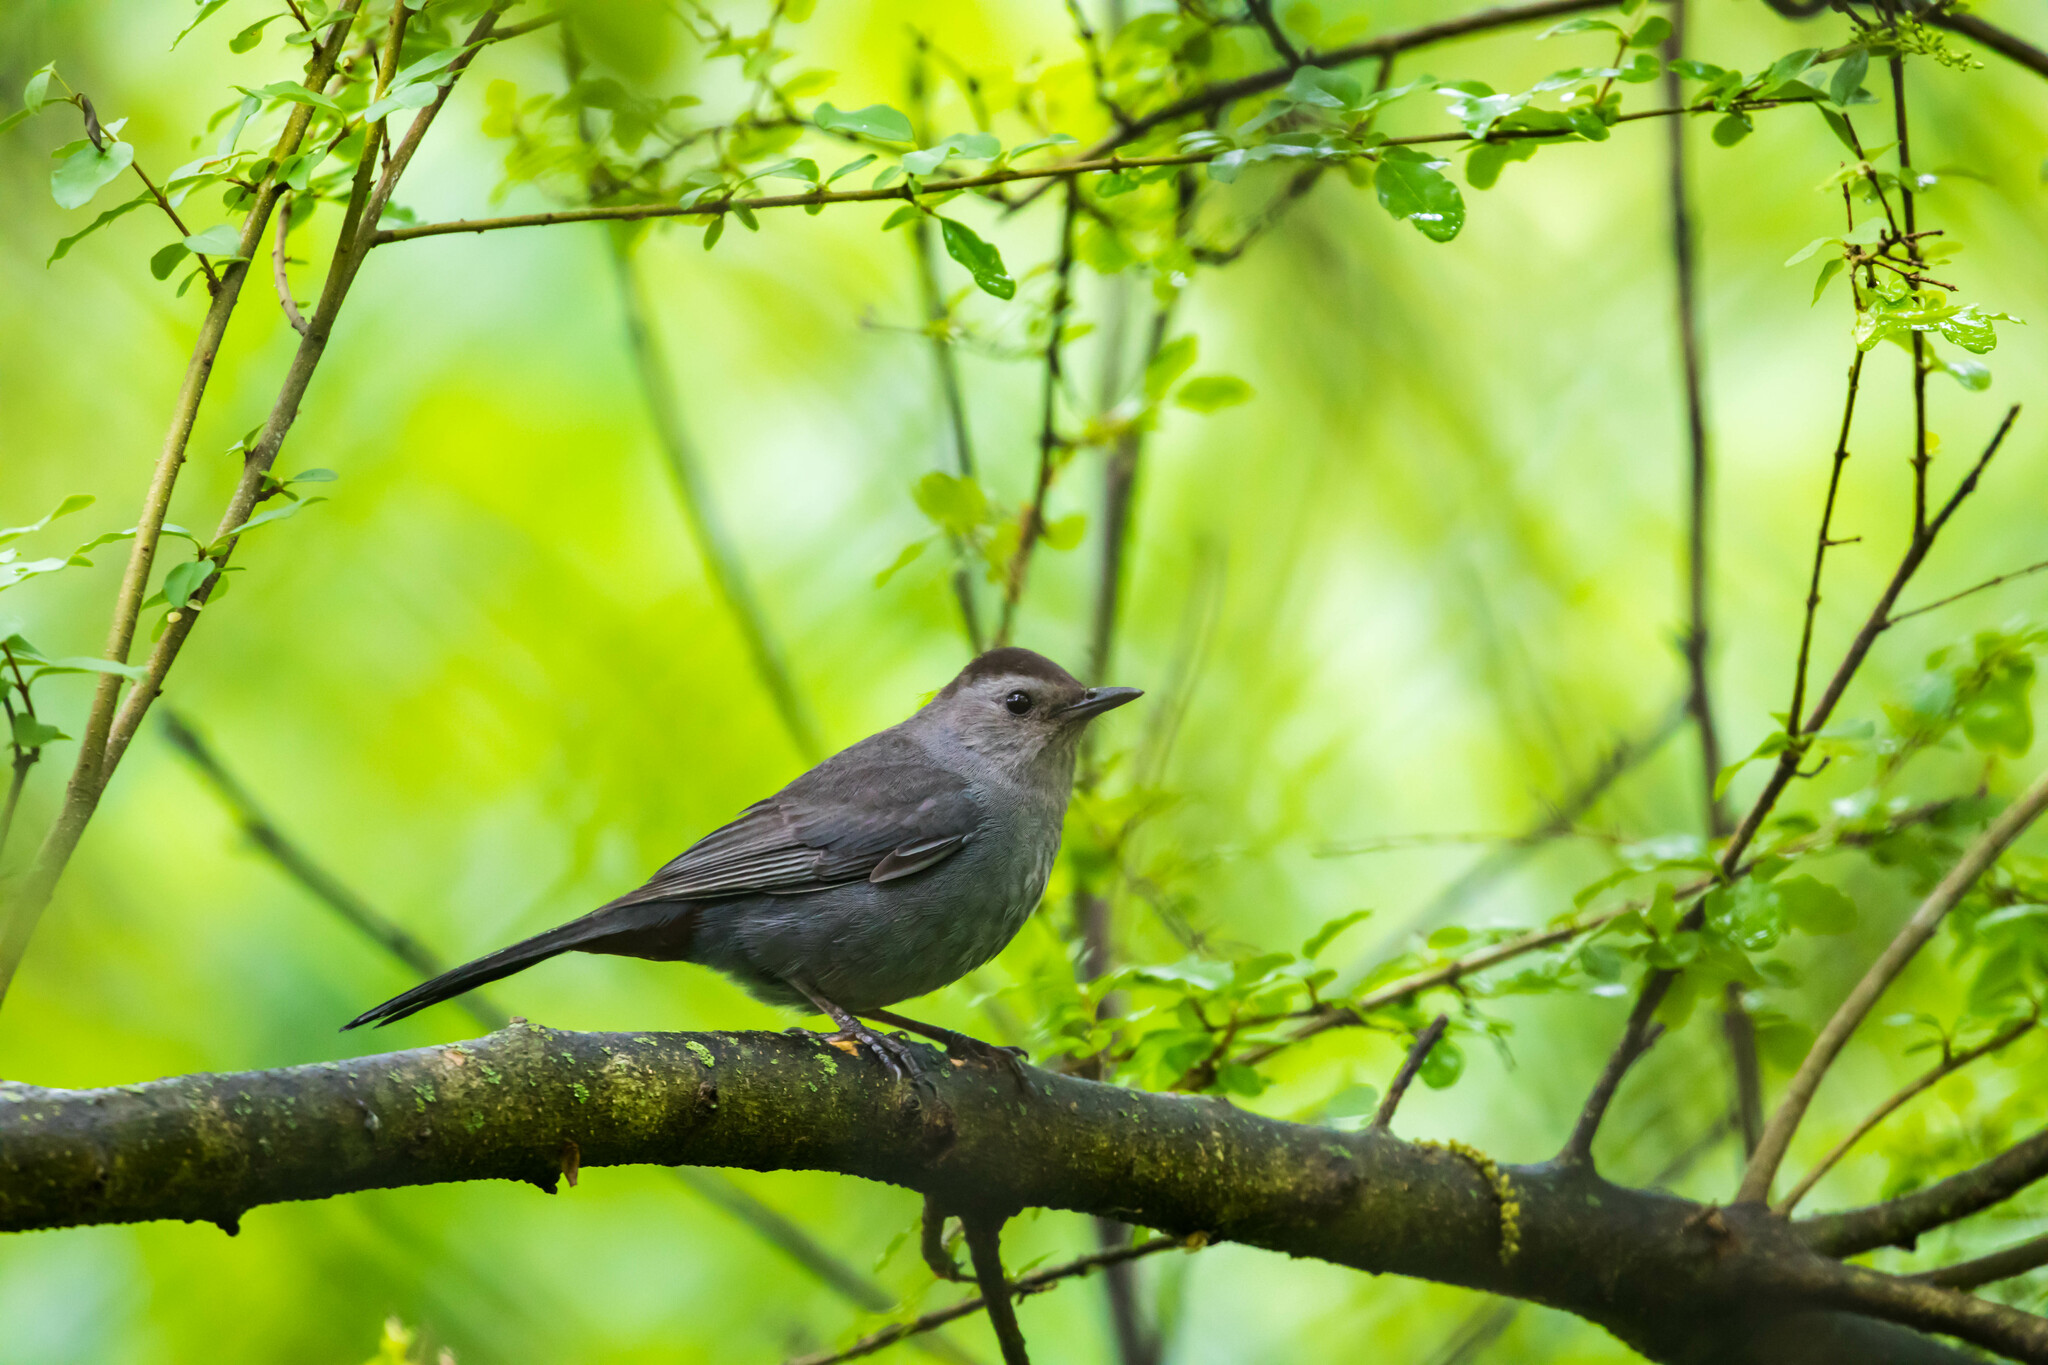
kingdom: Animalia
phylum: Chordata
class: Aves
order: Passeriformes
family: Mimidae
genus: Dumetella
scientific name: Dumetella carolinensis
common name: Gray catbird
